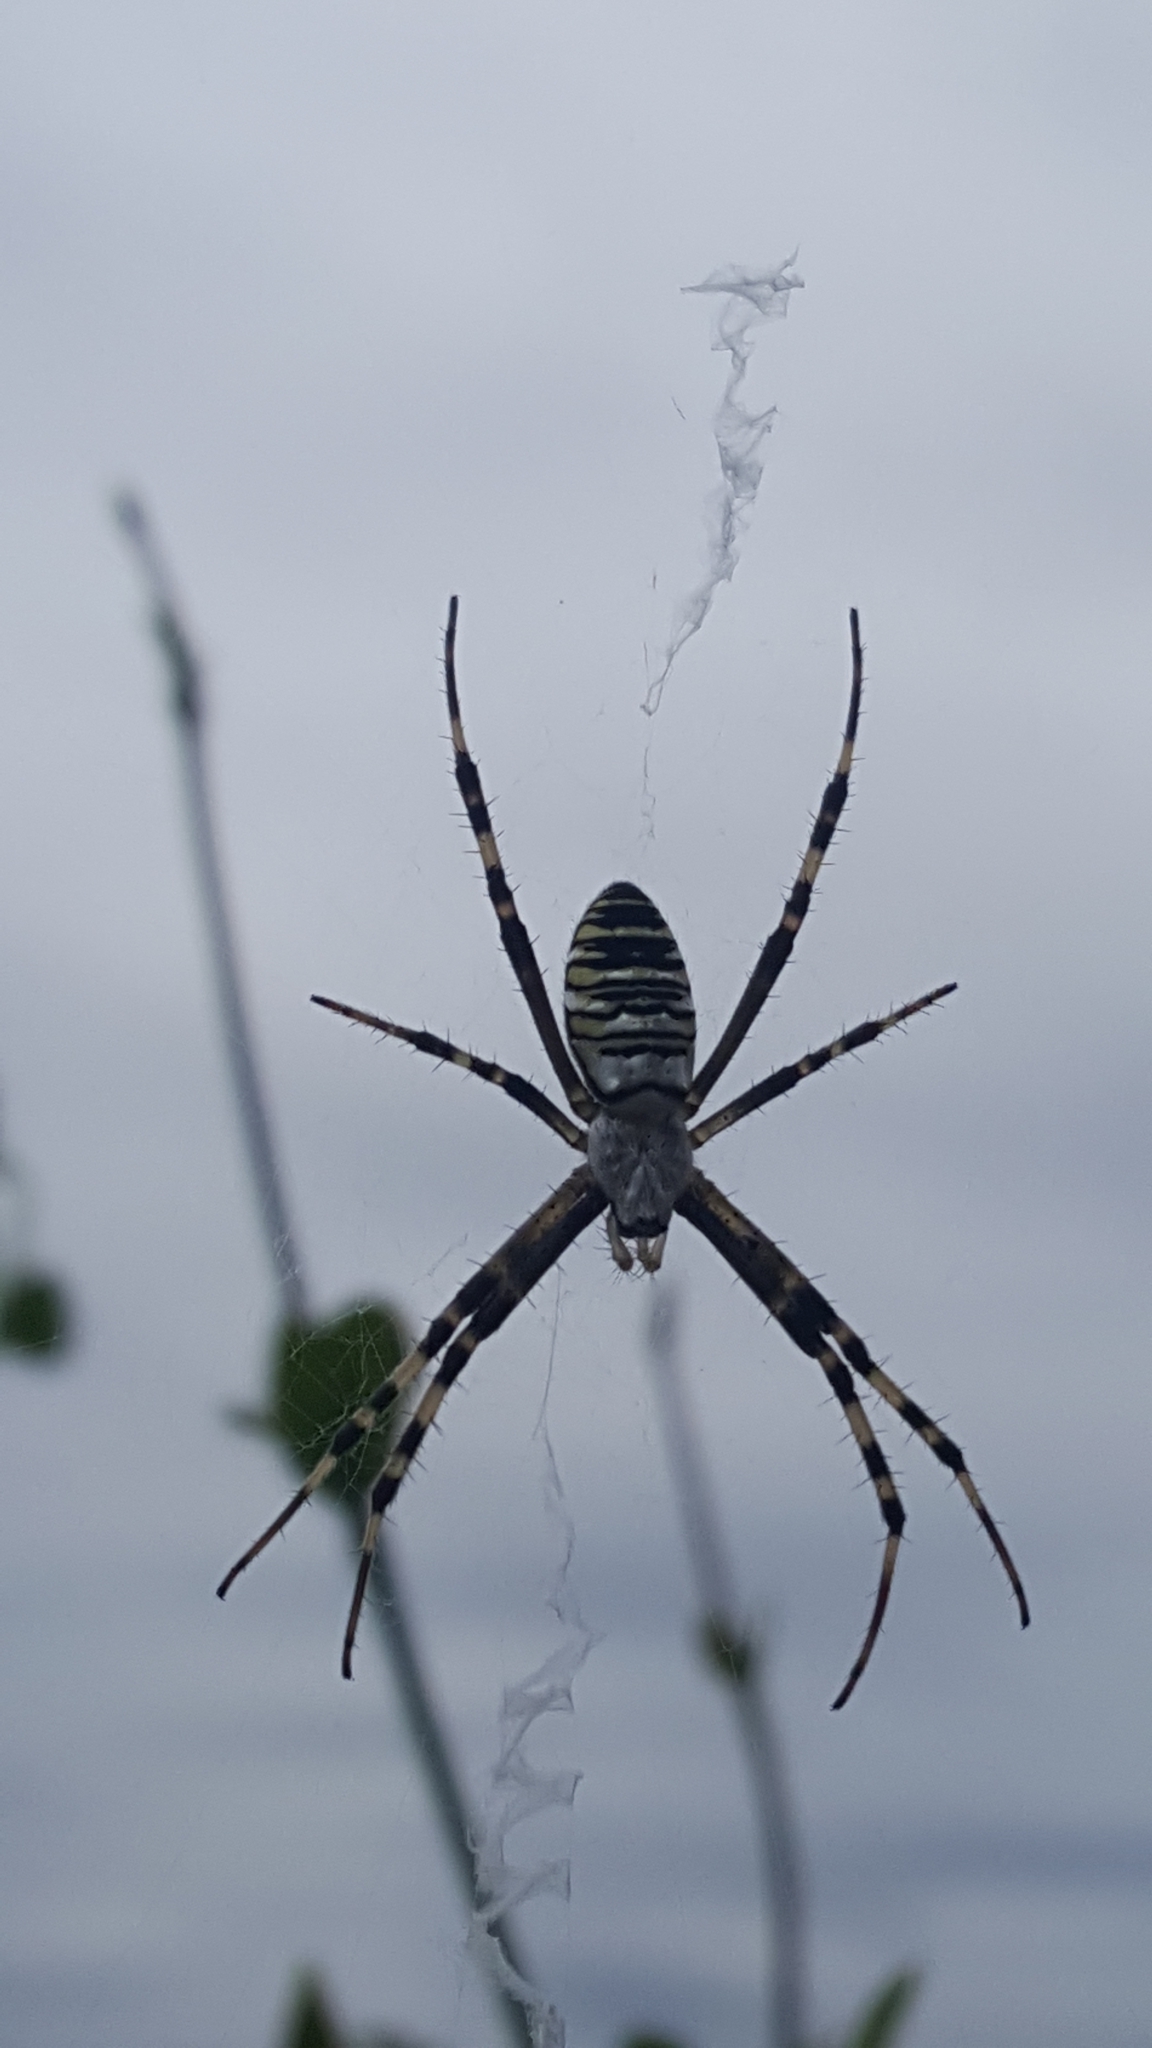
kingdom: Animalia
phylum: Arthropoda
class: Arachnida
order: Araneae
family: Araneidae
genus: Argiope
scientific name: Argiope bruennichi
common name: Wasp spider
